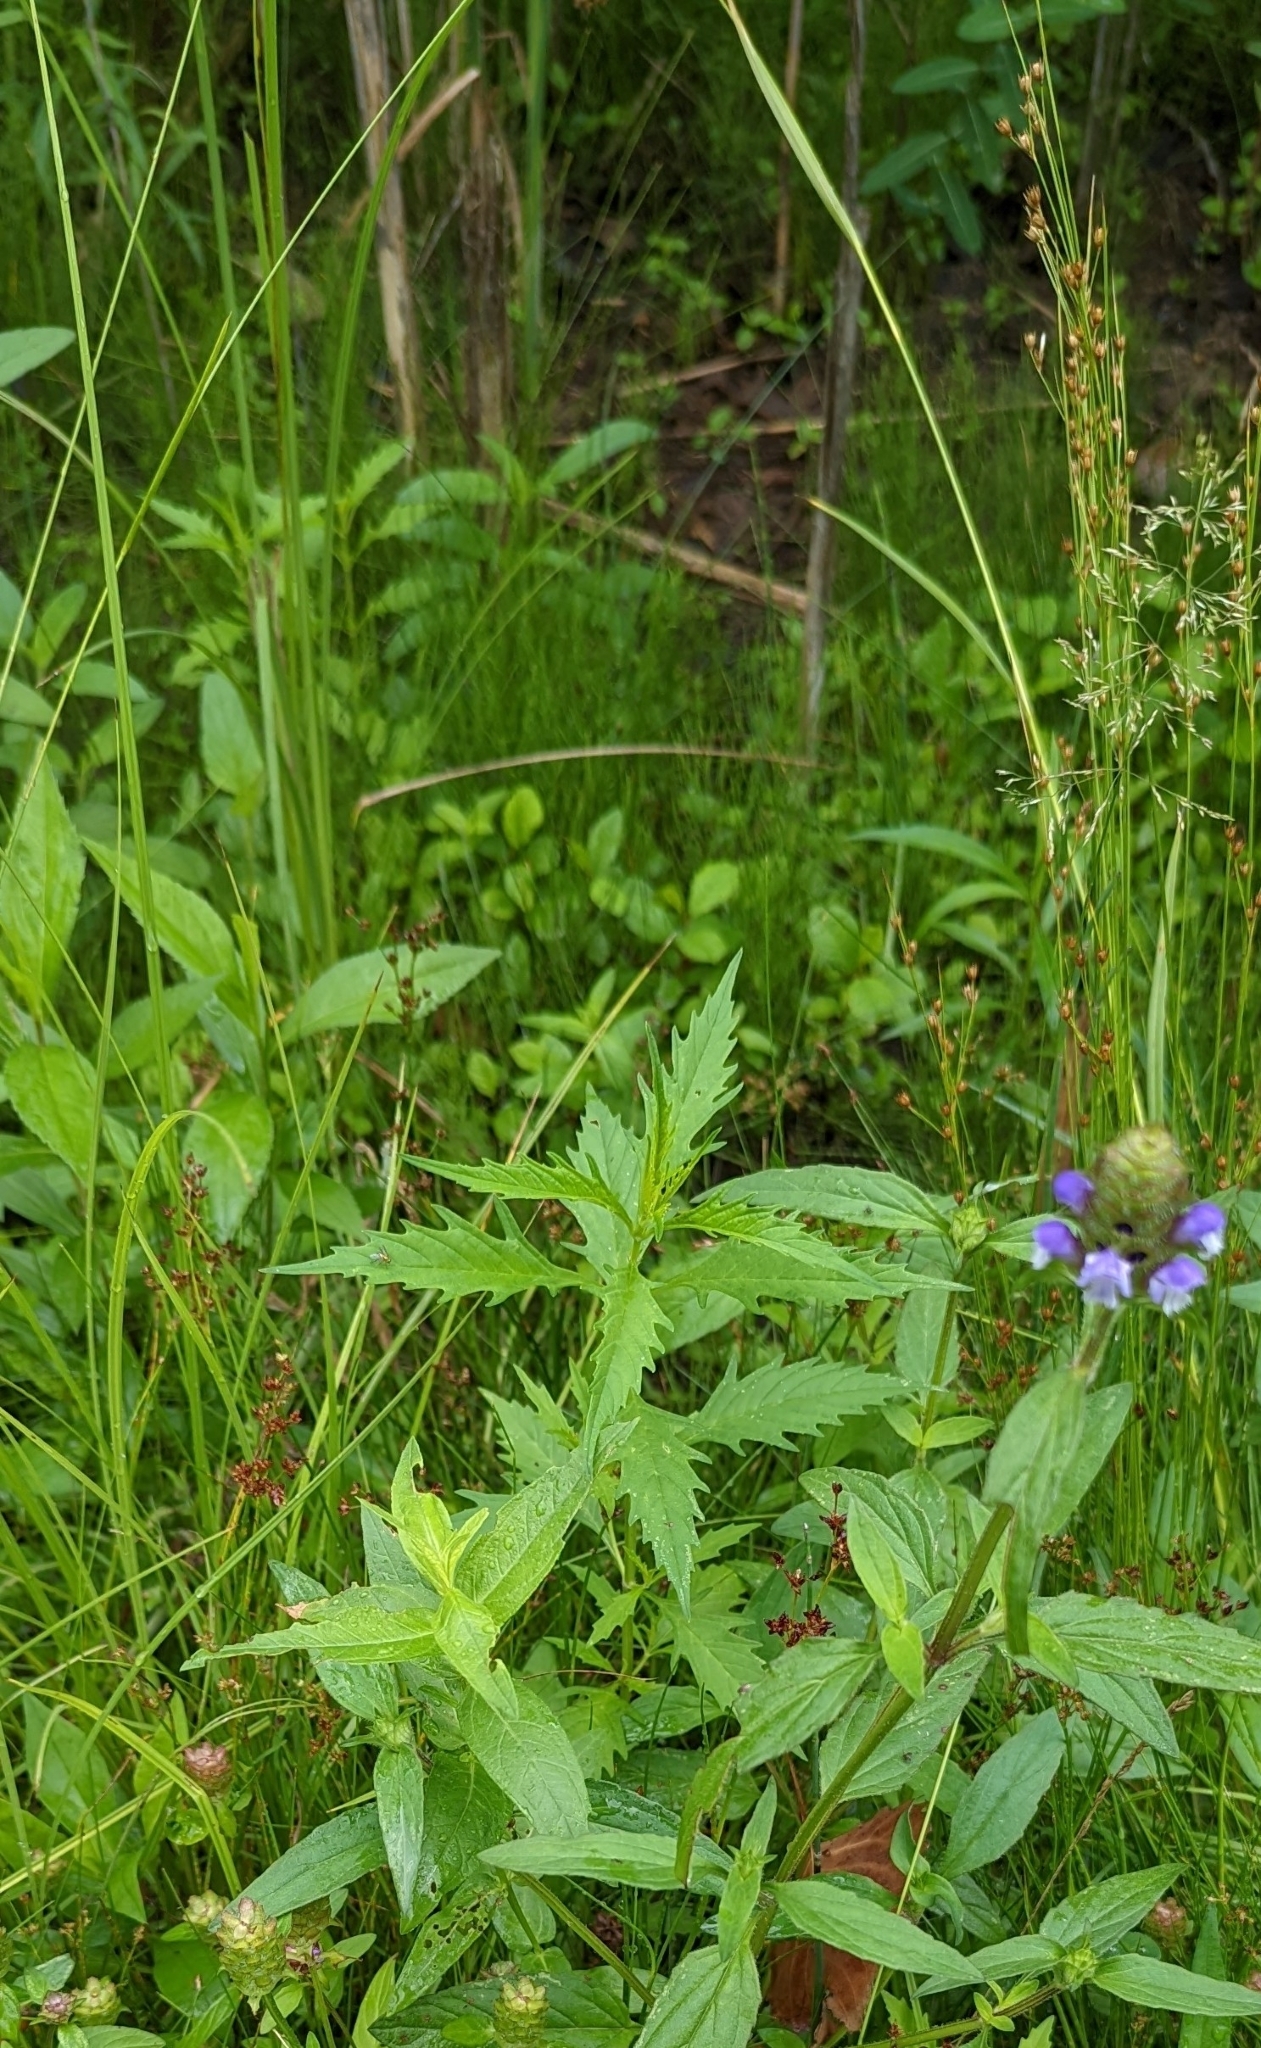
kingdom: Plantae
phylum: Tracheophyta
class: Magnoliopsida
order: Lamiales
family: Lamiaceae
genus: Lycopus
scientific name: Lycopus europaeus
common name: European bugleweed
